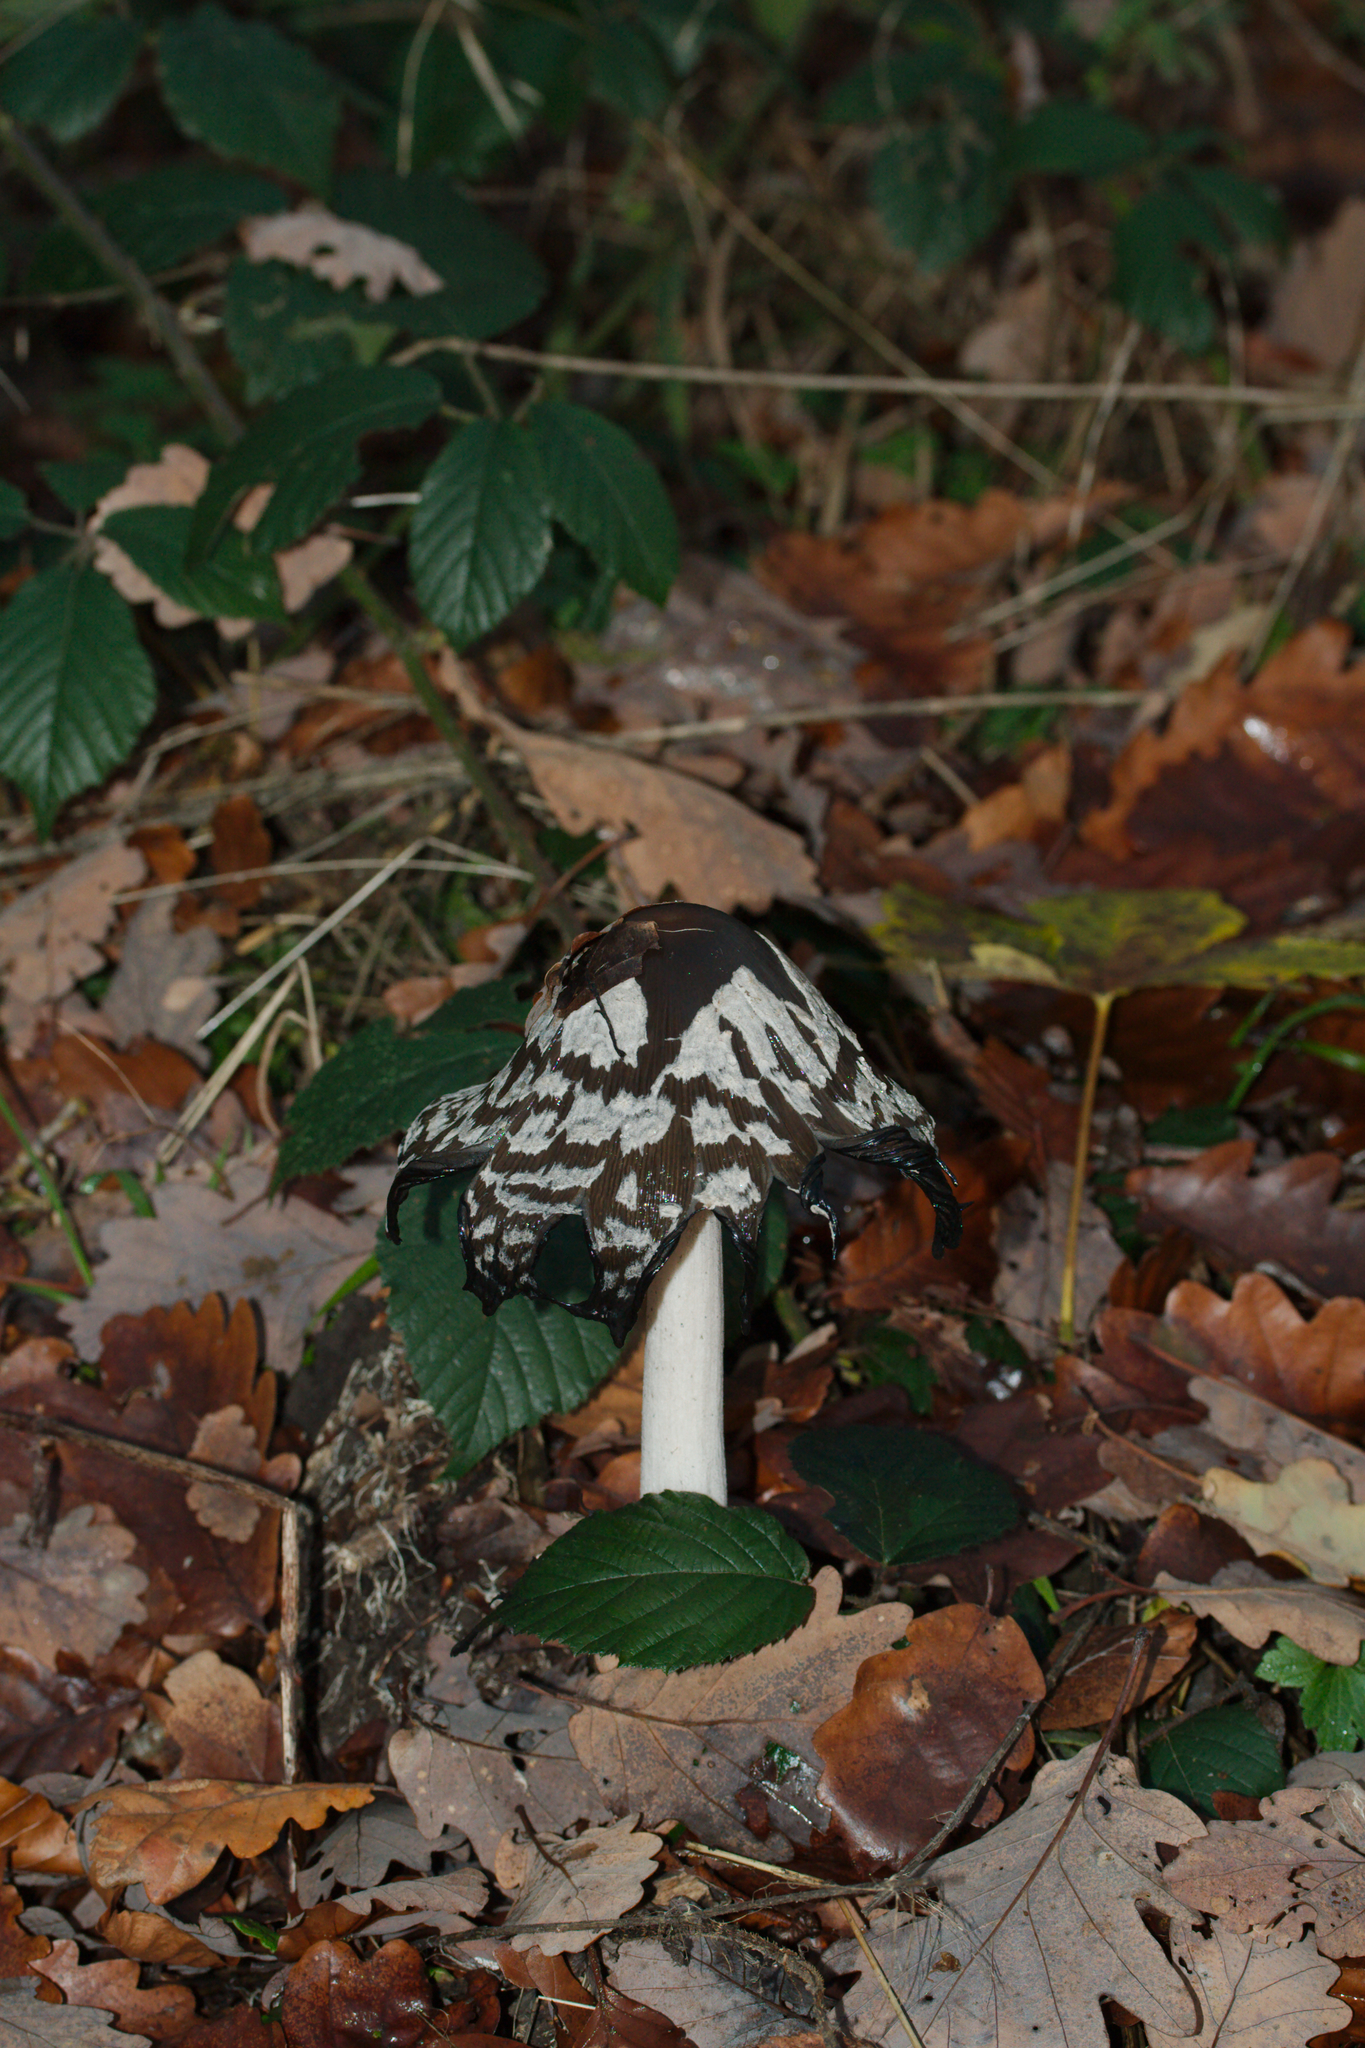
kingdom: Fungi
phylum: Basidiomycota
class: Agaricomycetes
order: Agaricales
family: Psathyrellaceae
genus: Coprinopsis
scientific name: Coprinopsis picacea
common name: Magpie inkcap
